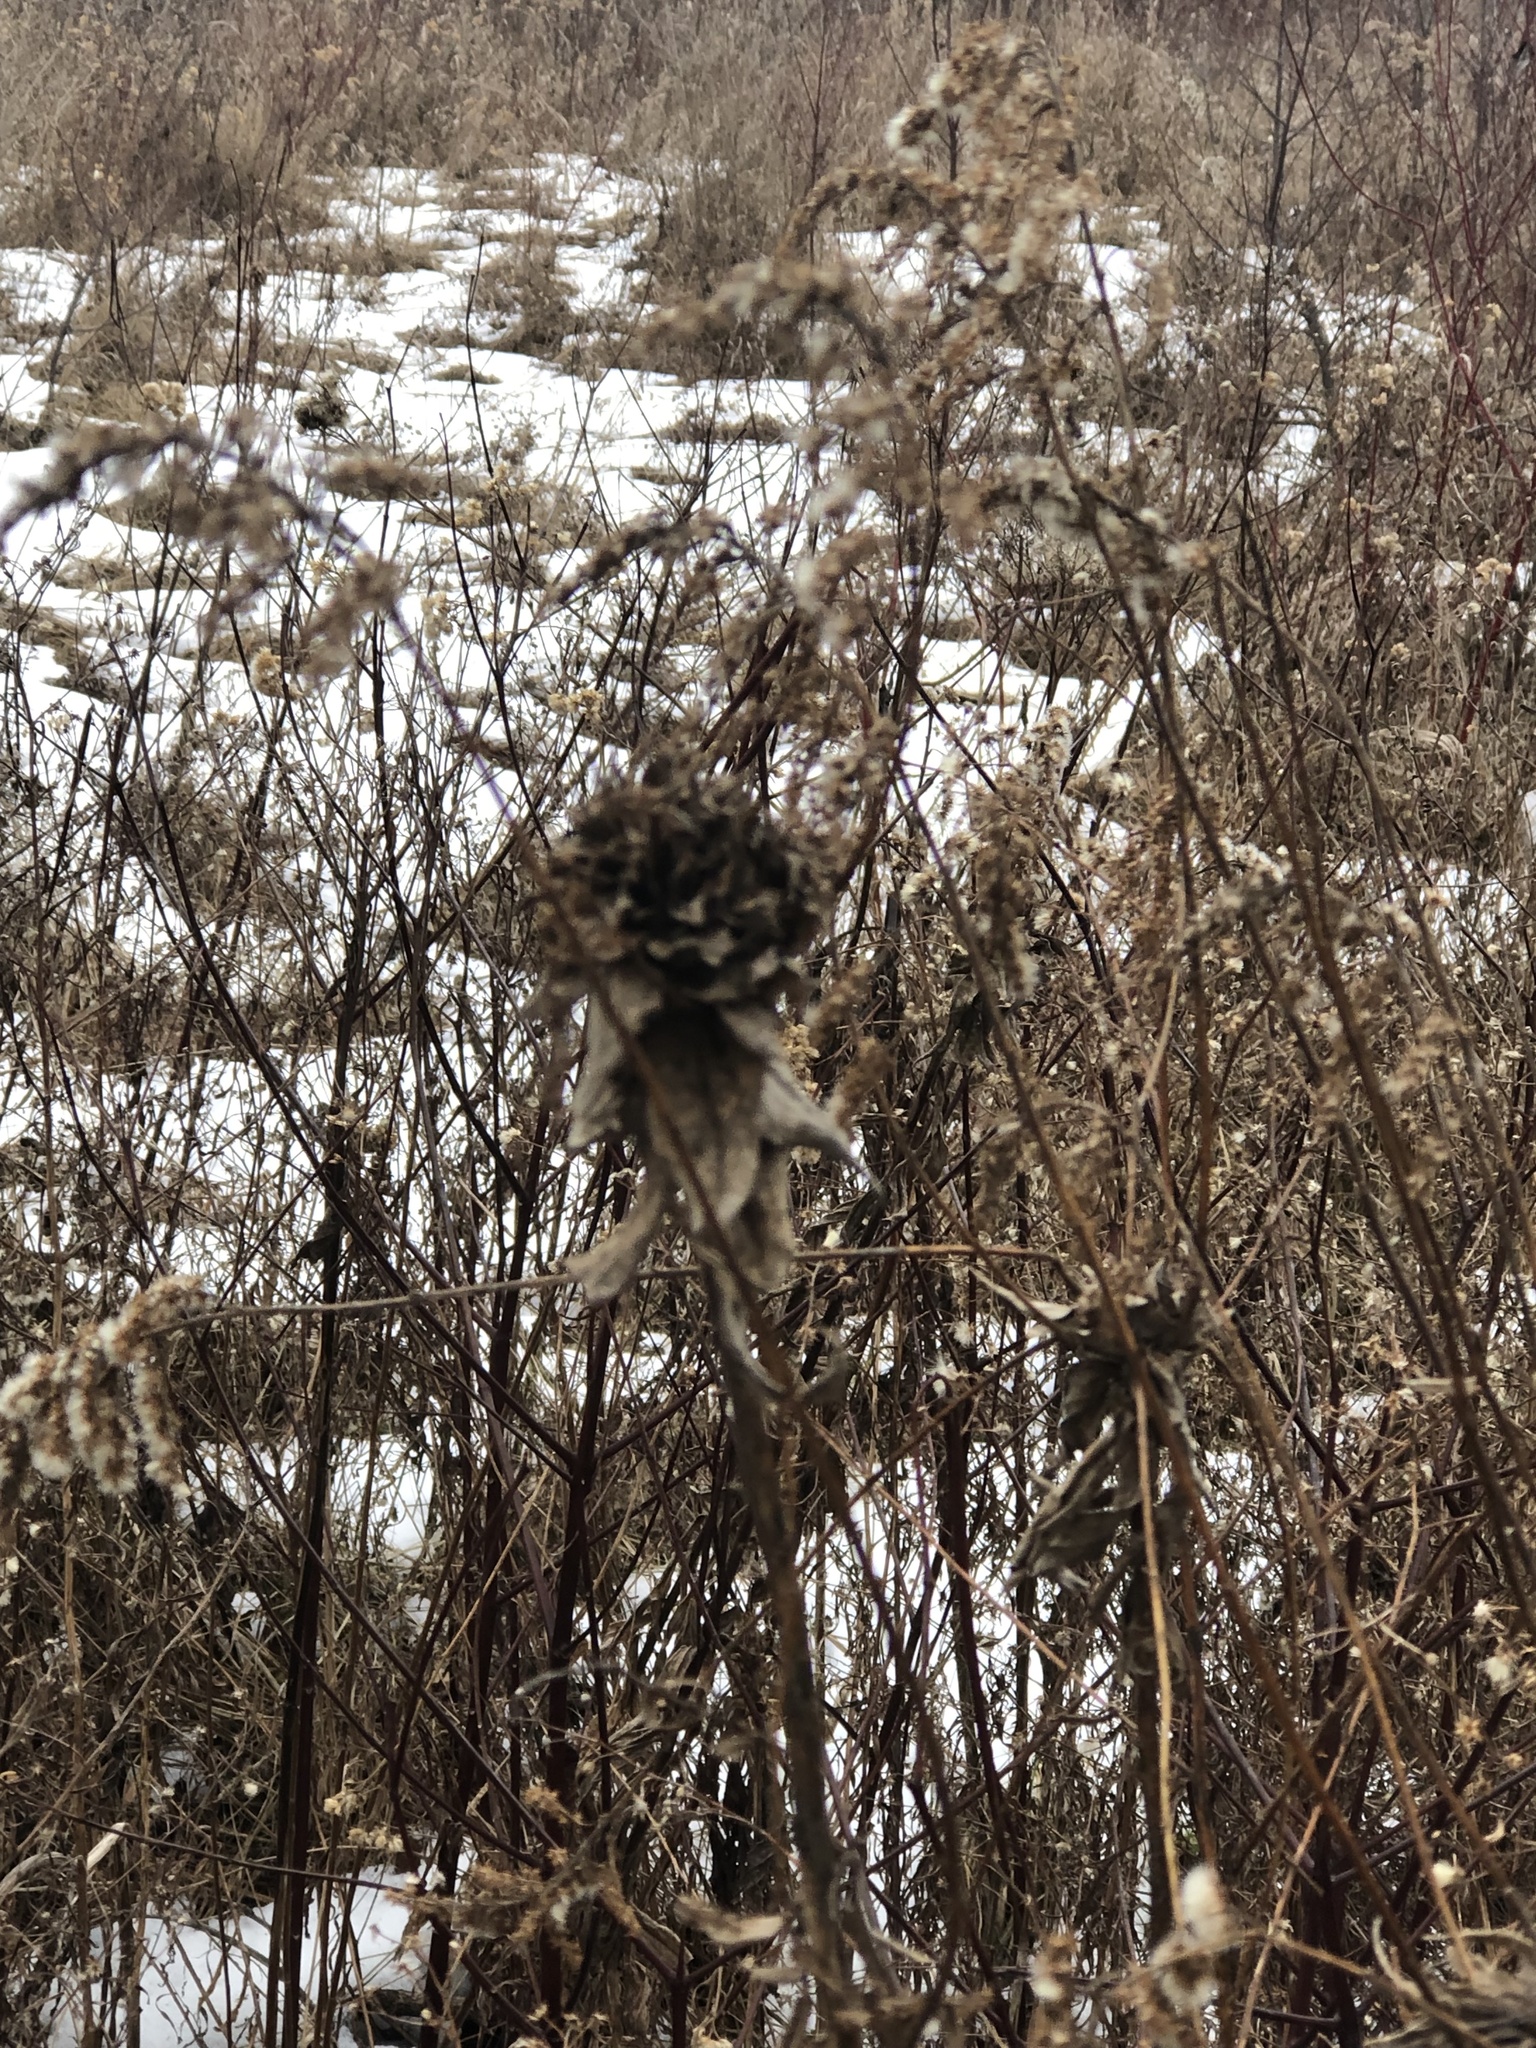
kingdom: Animalia
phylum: Arthropoda
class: Insecta
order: Diptera
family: Cecidomyiidae
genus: Rhopalomyia
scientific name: Rhopalomyia solidaginis
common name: Goldenrod bunch gall midge
